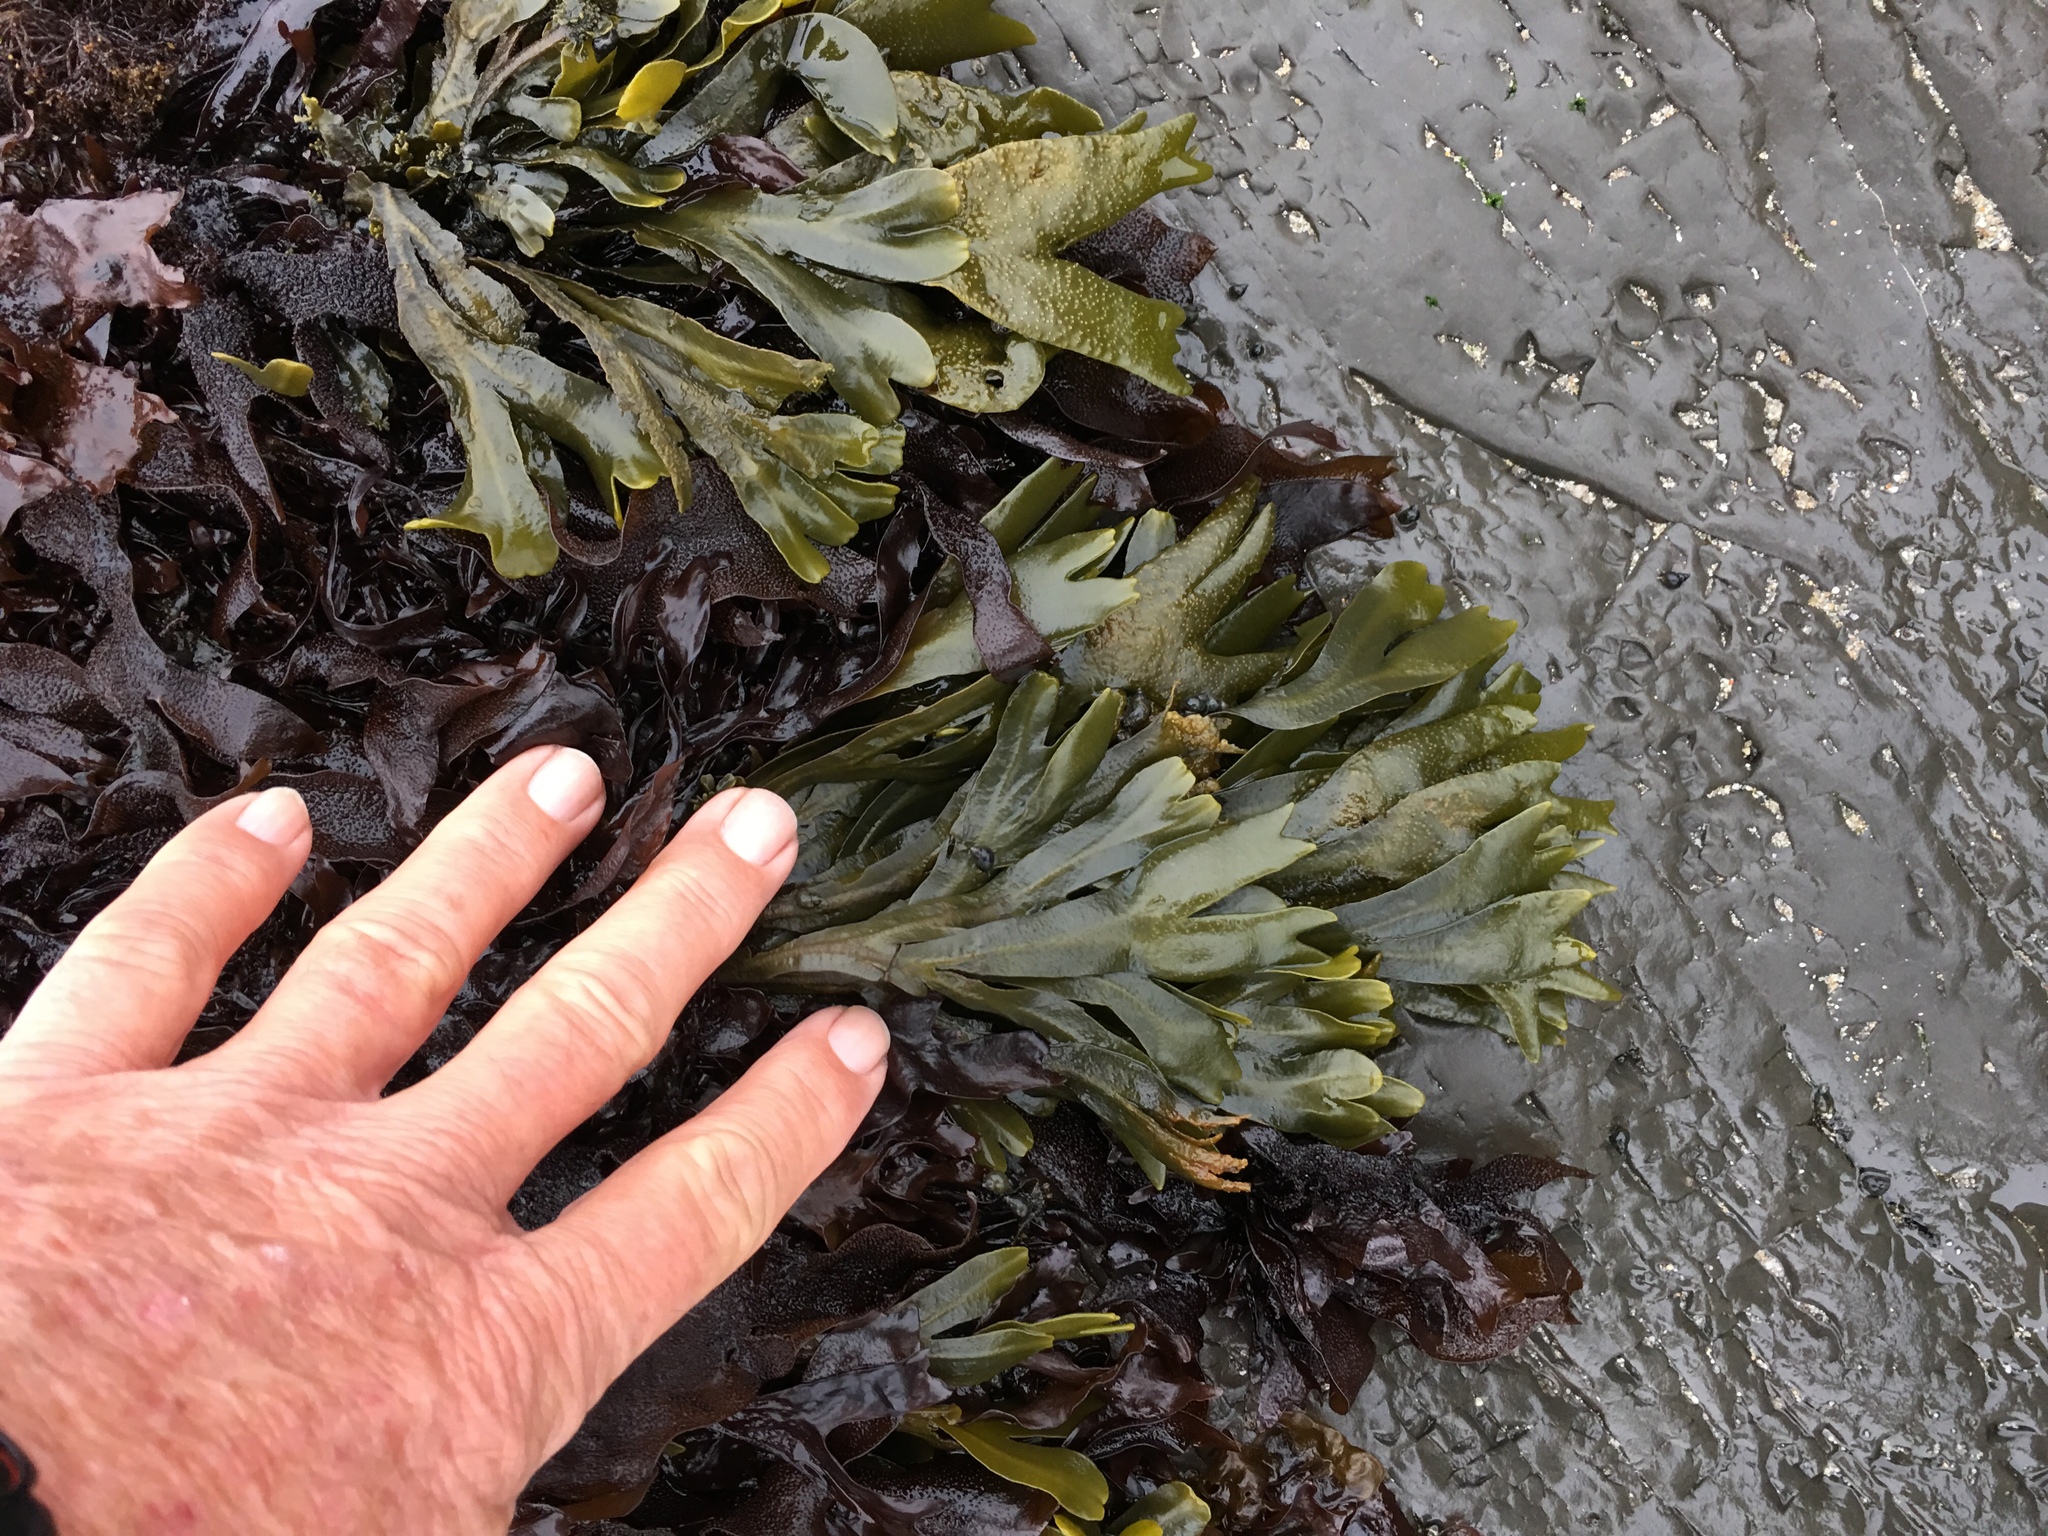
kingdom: Chromista
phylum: Ochrophyta
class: Phaeophyceae
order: Fucales
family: Fucaceae
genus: Fucus
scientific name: Fucus distichus
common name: Rockweed
